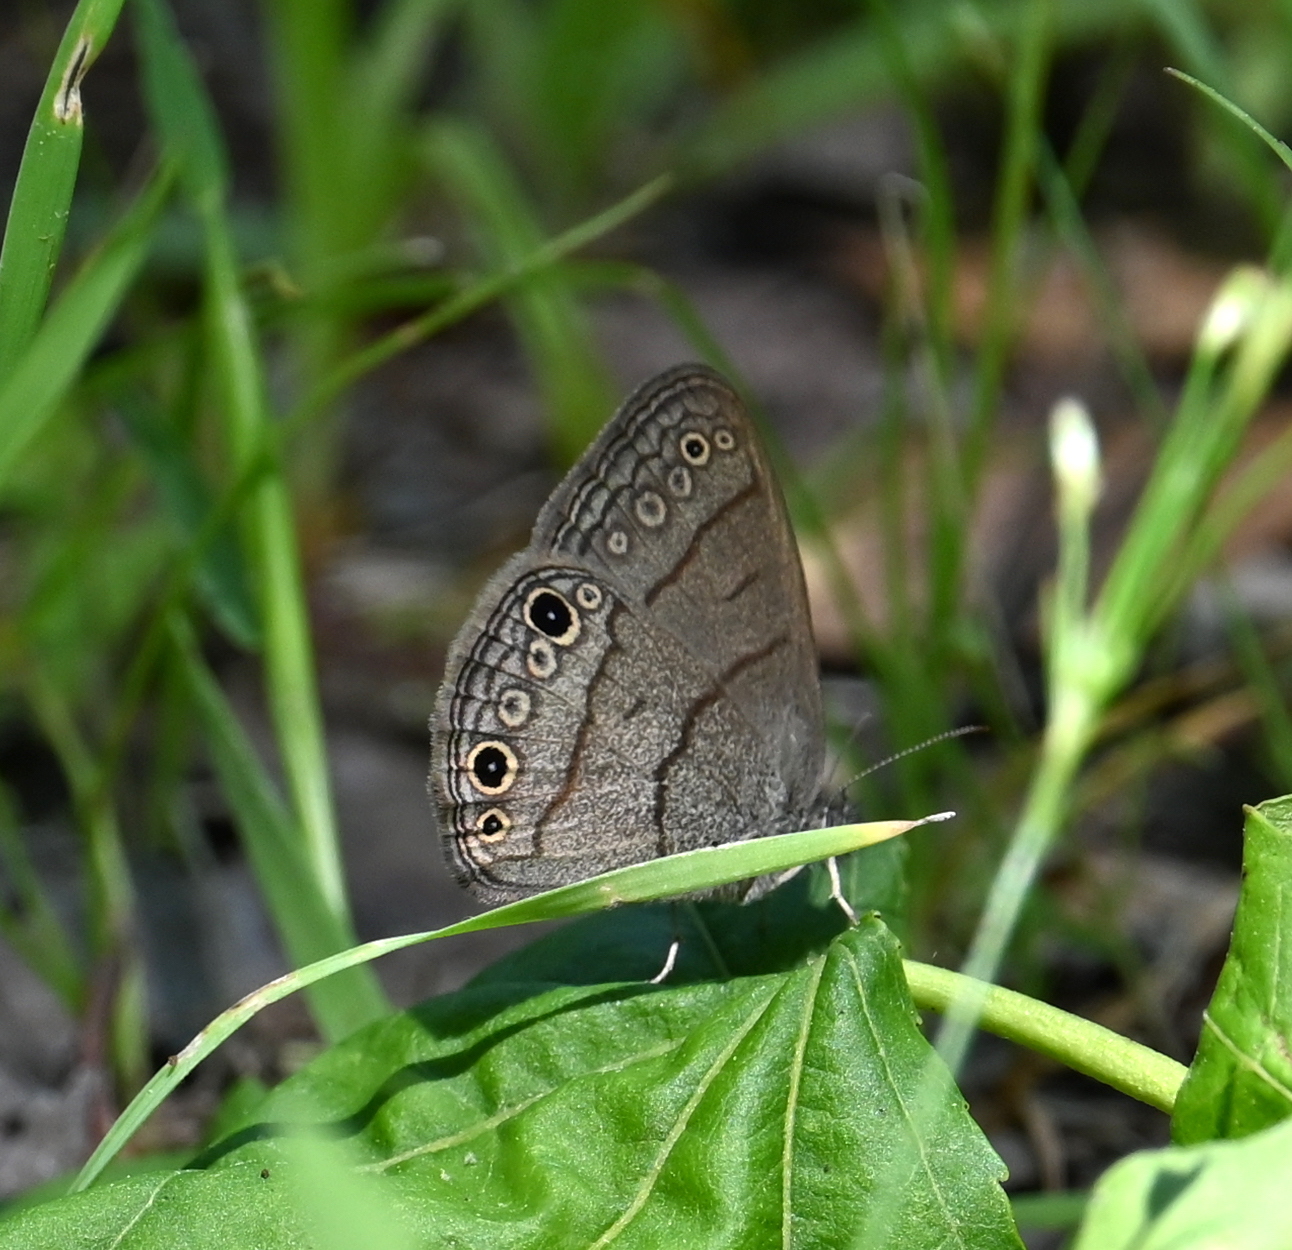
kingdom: Animalia
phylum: Arthropoda
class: Insecta
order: Lepidoptera
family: Nymphalidae
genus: Hermeuptychia
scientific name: Hermeuptychia hermes
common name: Hermes satyr
